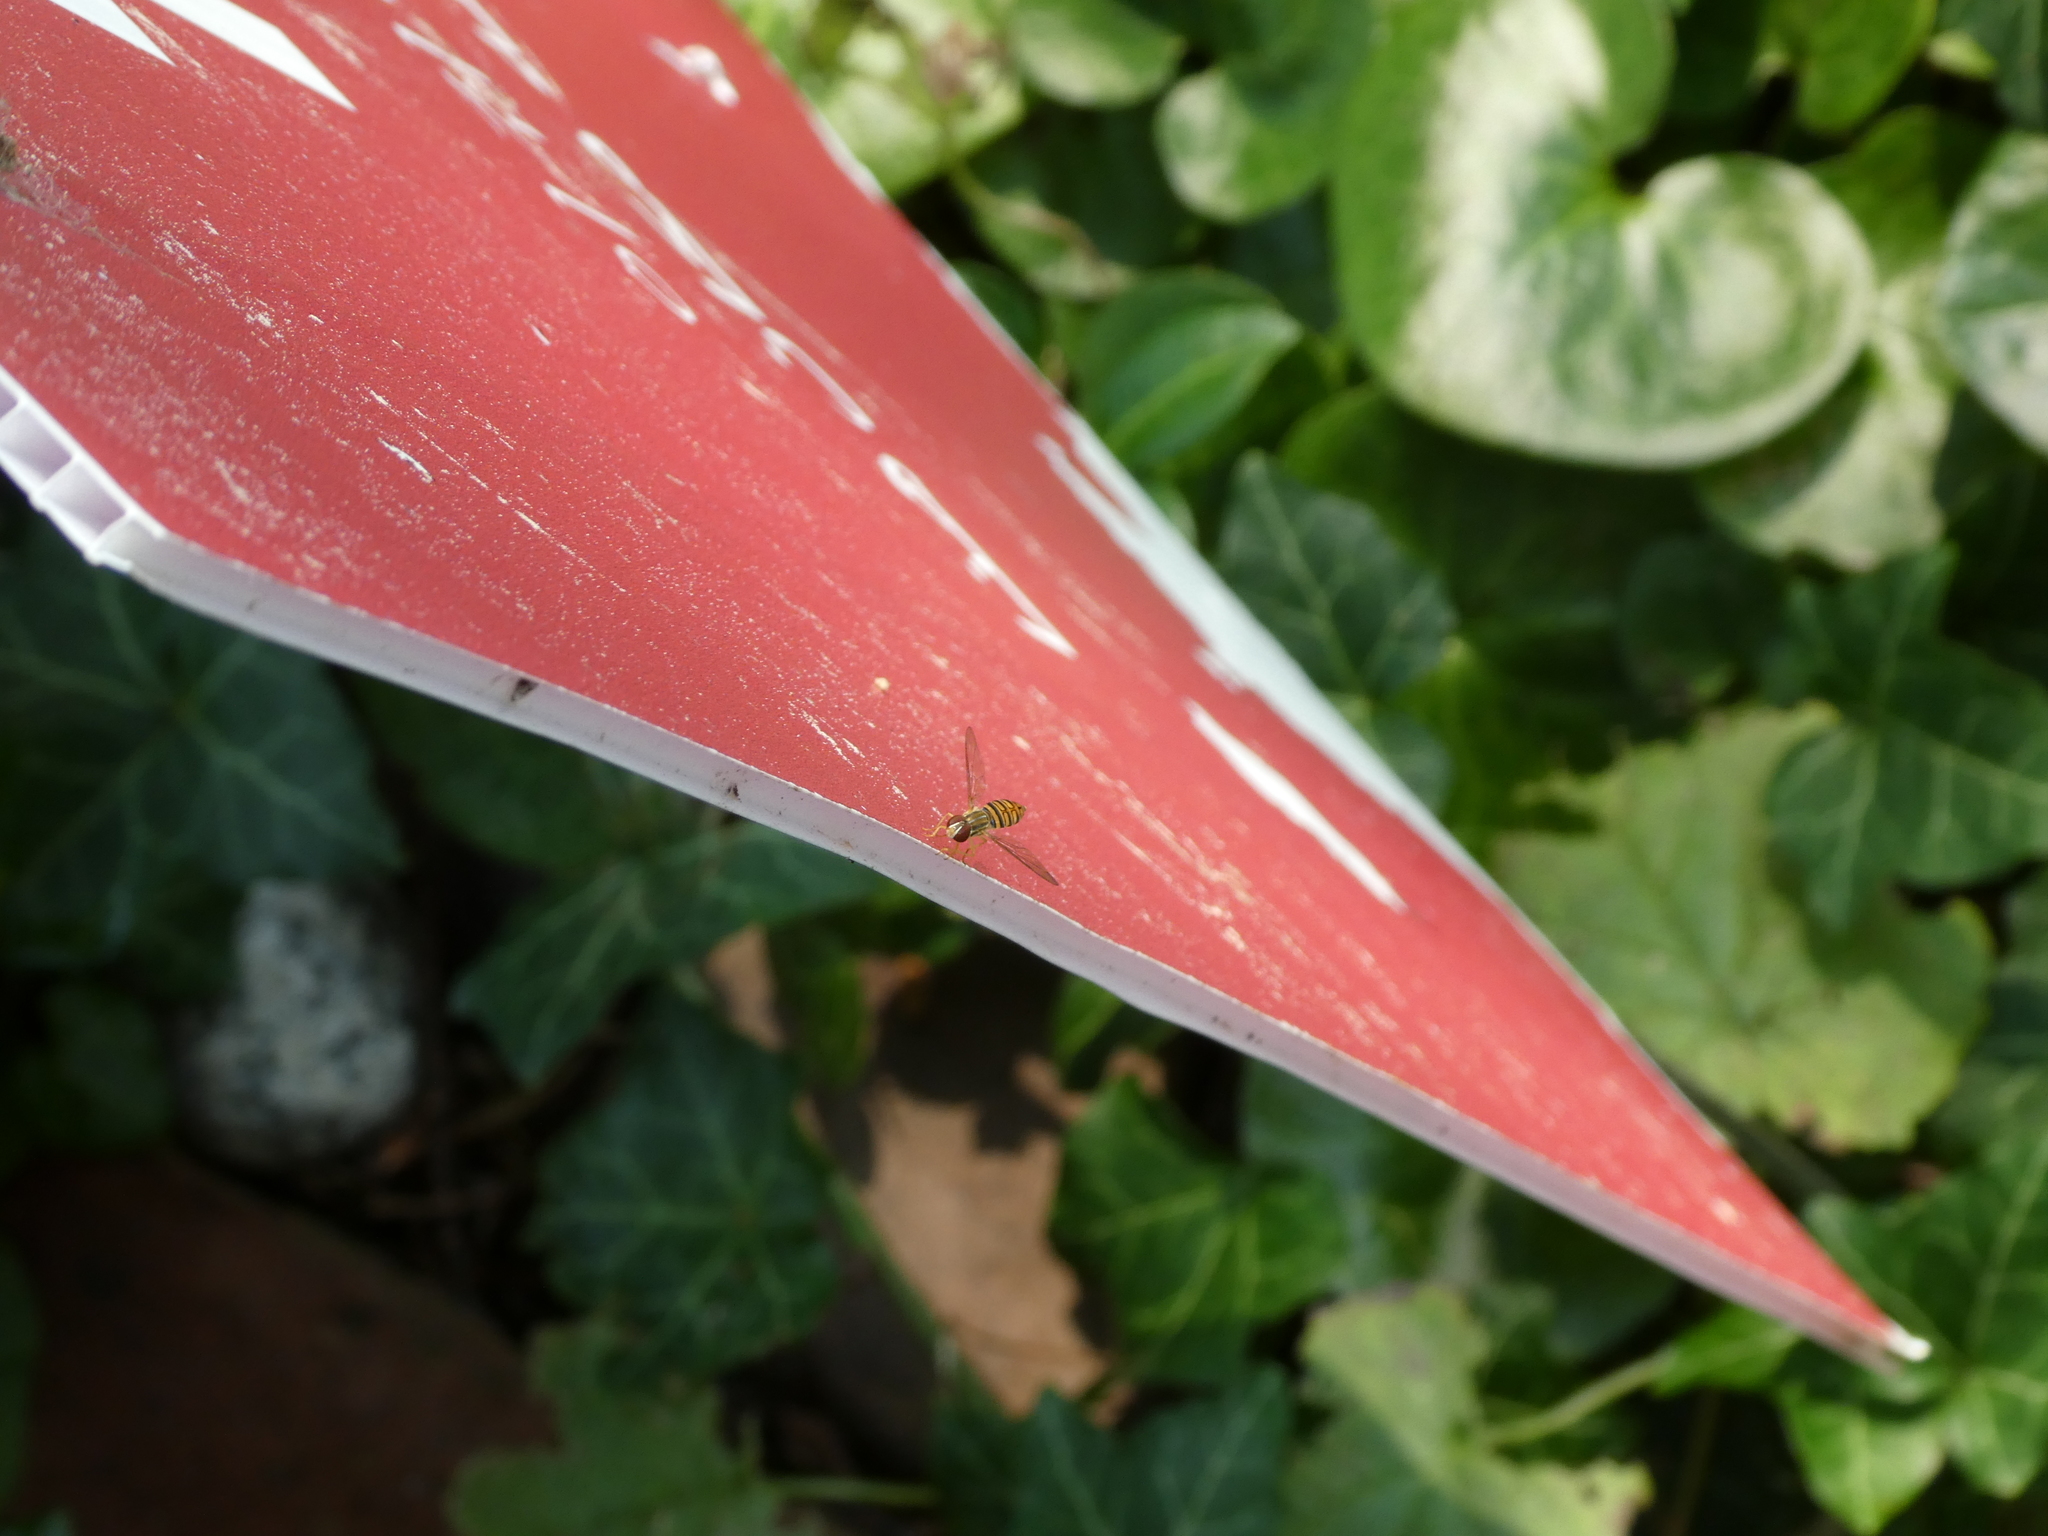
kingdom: Animalia
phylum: Arthropoda
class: Insecta
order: Diptera
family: Syrphidae
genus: Toxomerus
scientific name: Toxomerus politus
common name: Maize calligrapher
